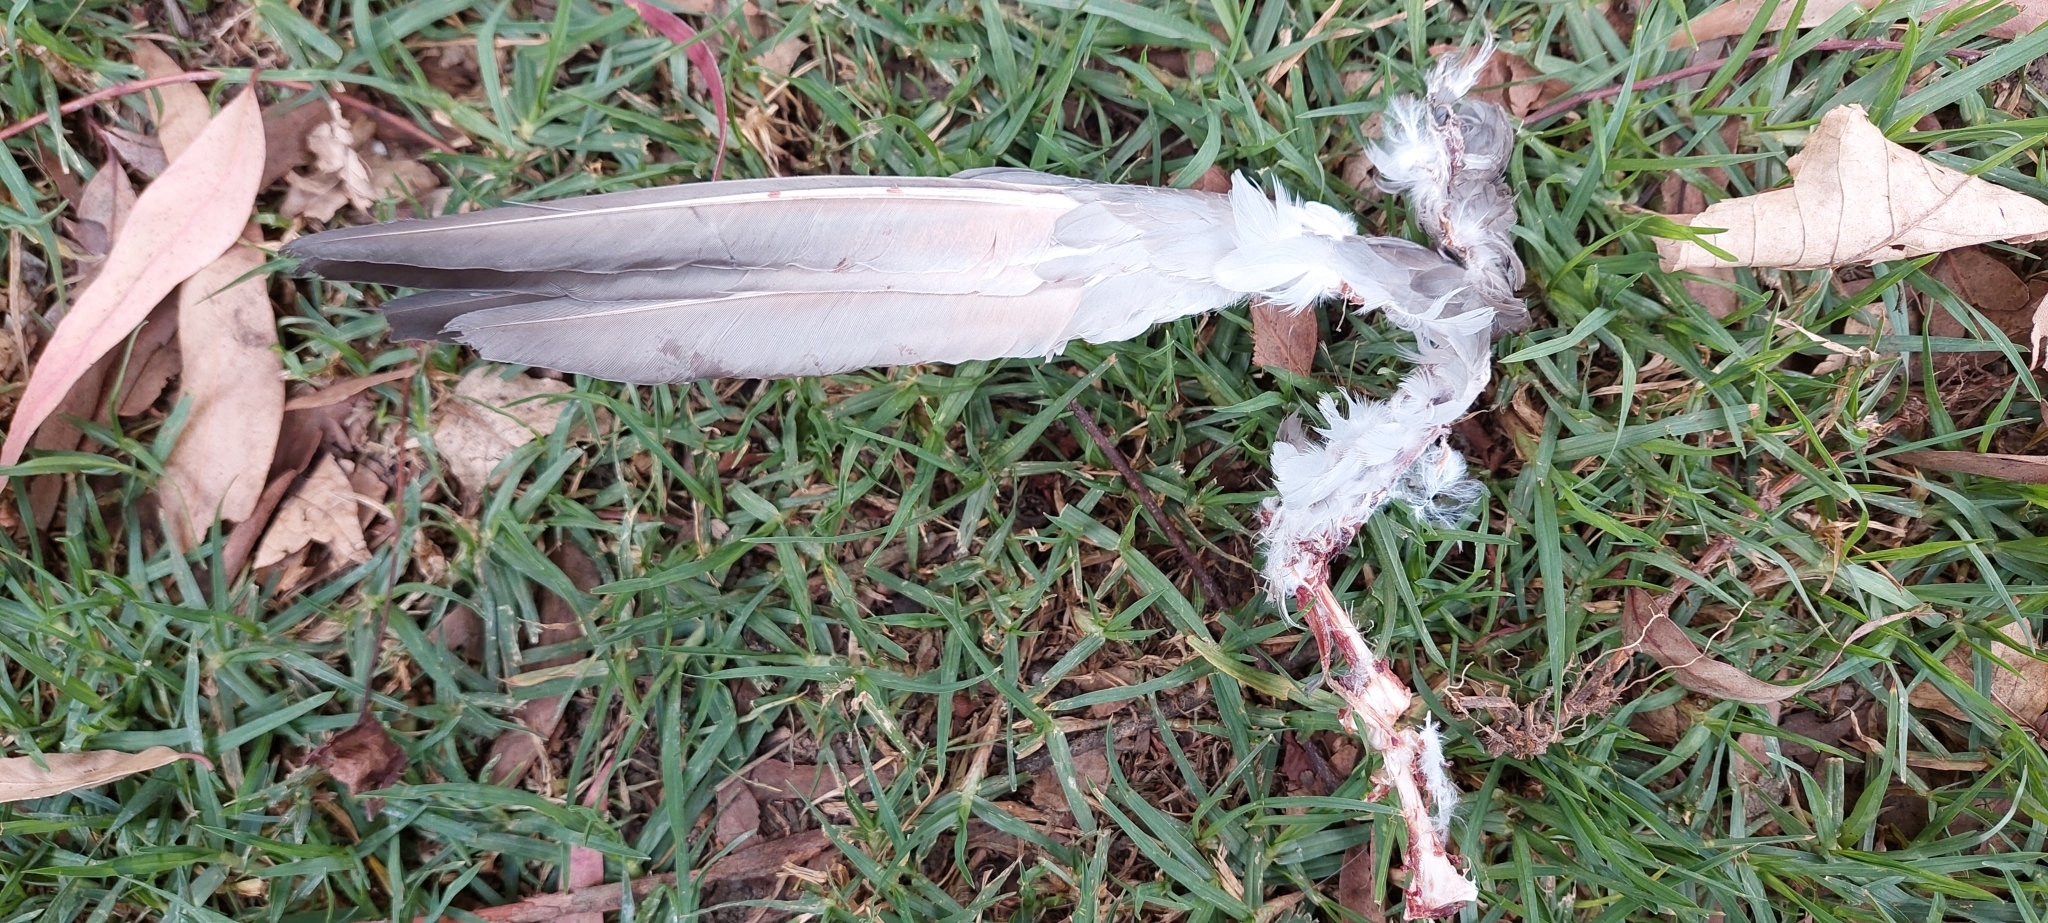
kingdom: Animalia
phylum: Chordata
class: Aves
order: Columbiformes
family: Columbidae
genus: Columba
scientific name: Columba livia
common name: Rock pigeon
